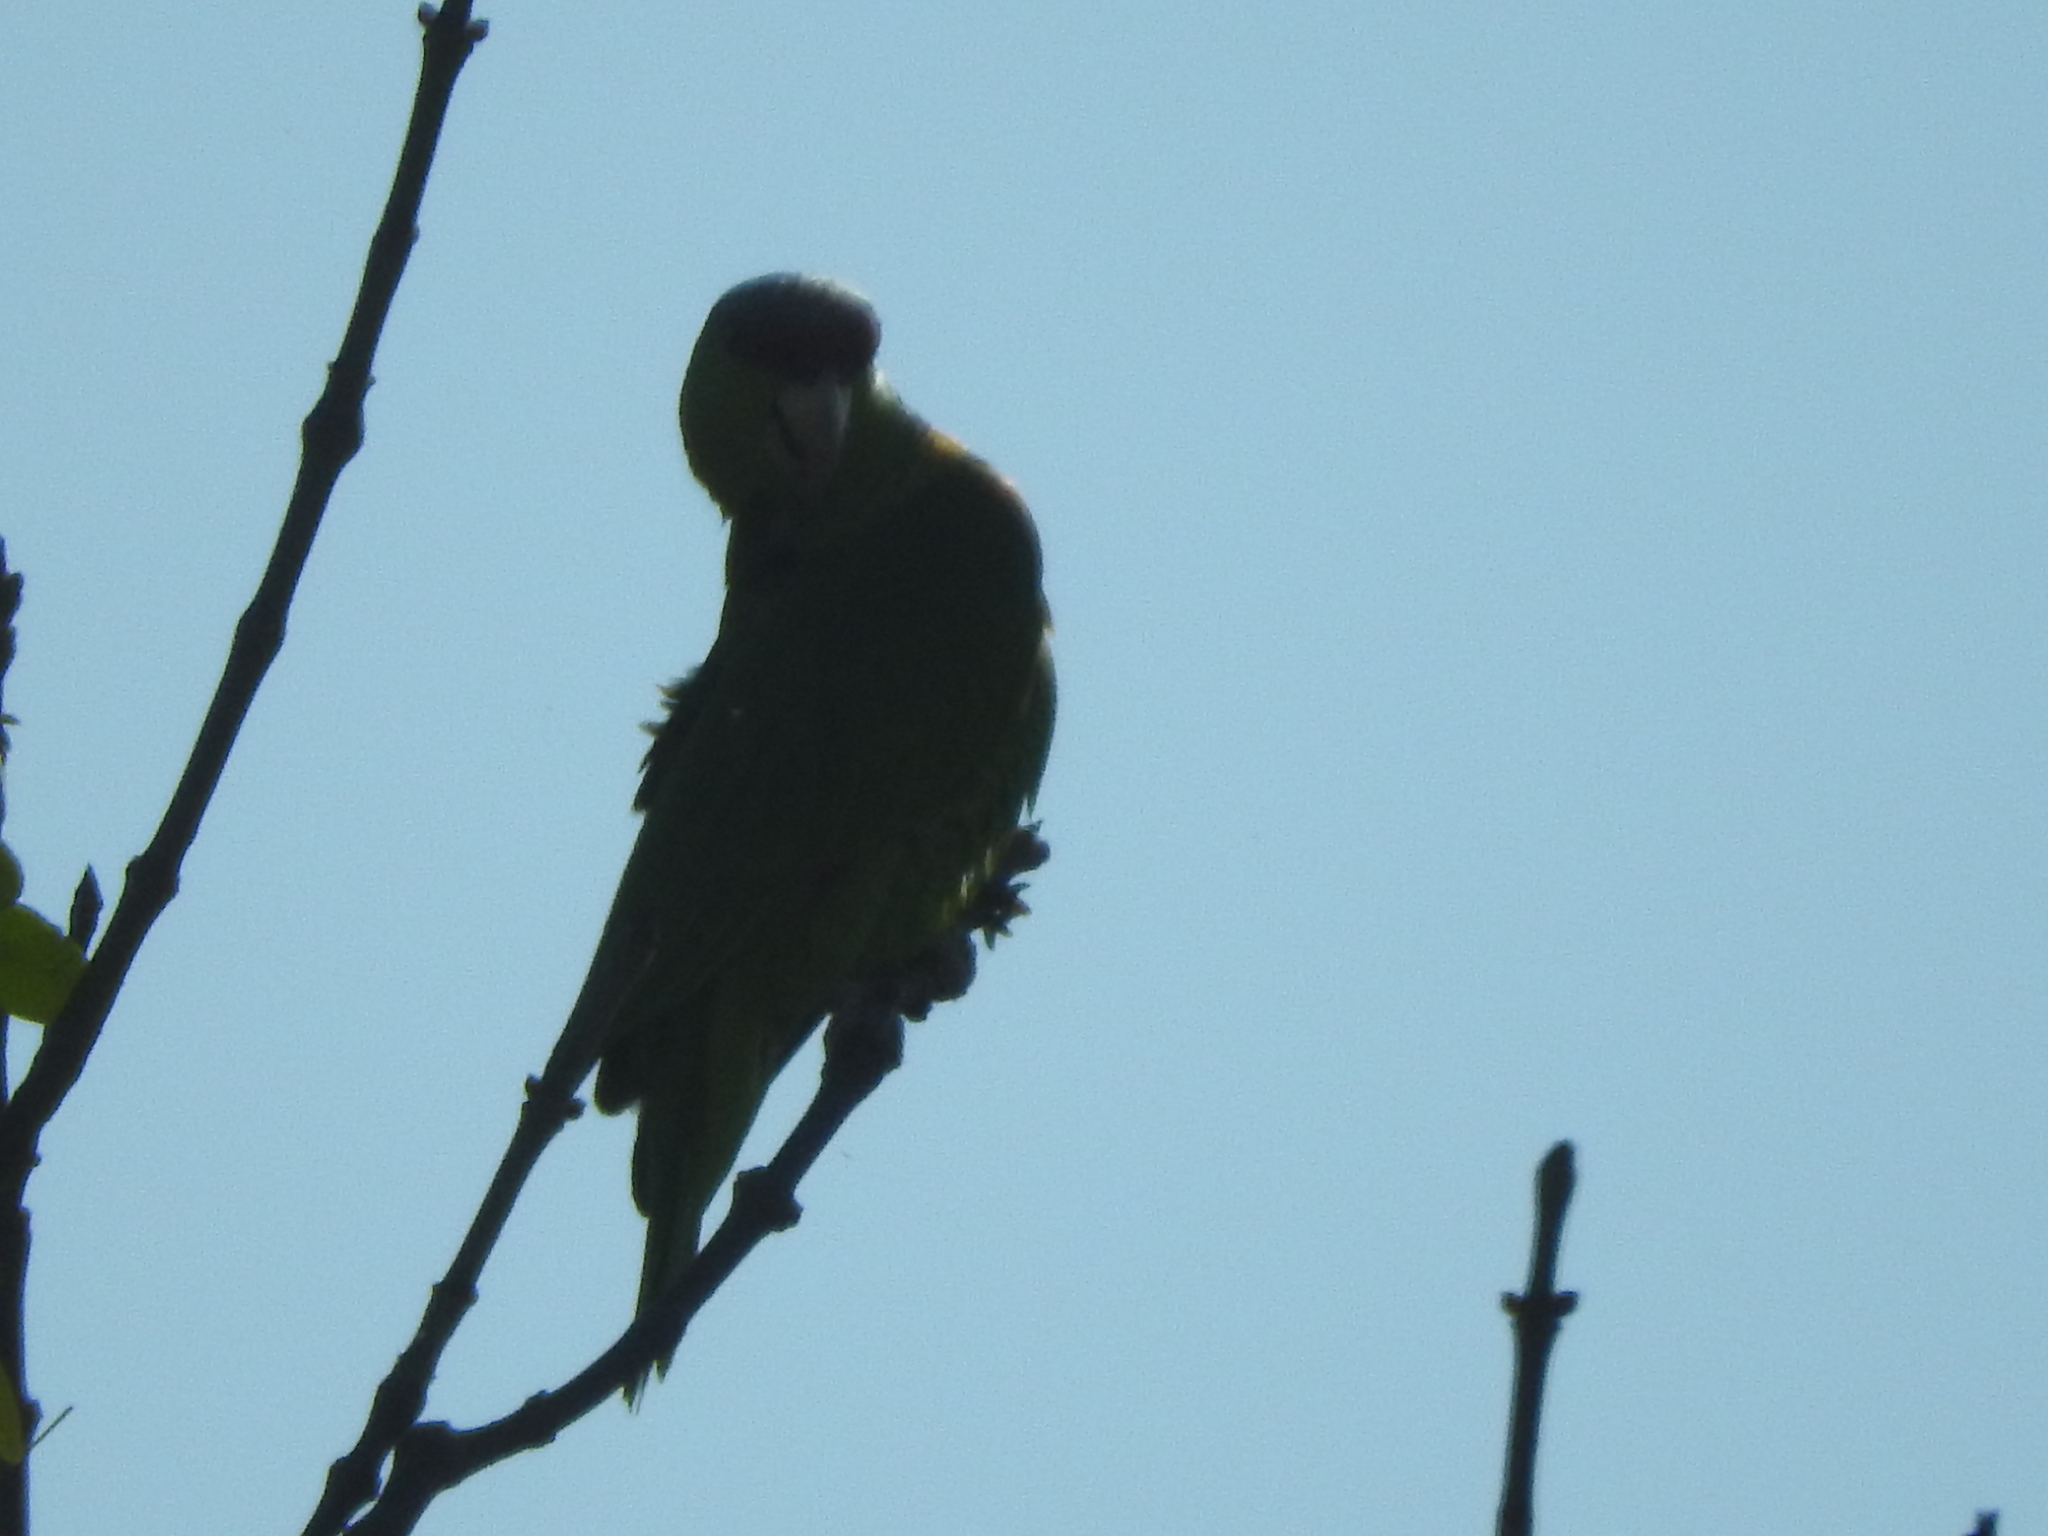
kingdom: Animalia
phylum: Chordata
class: Aves
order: Psittaciformes
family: Psittacidae
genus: Aratinga
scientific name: Aratinga holochlora
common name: Green parakeet
